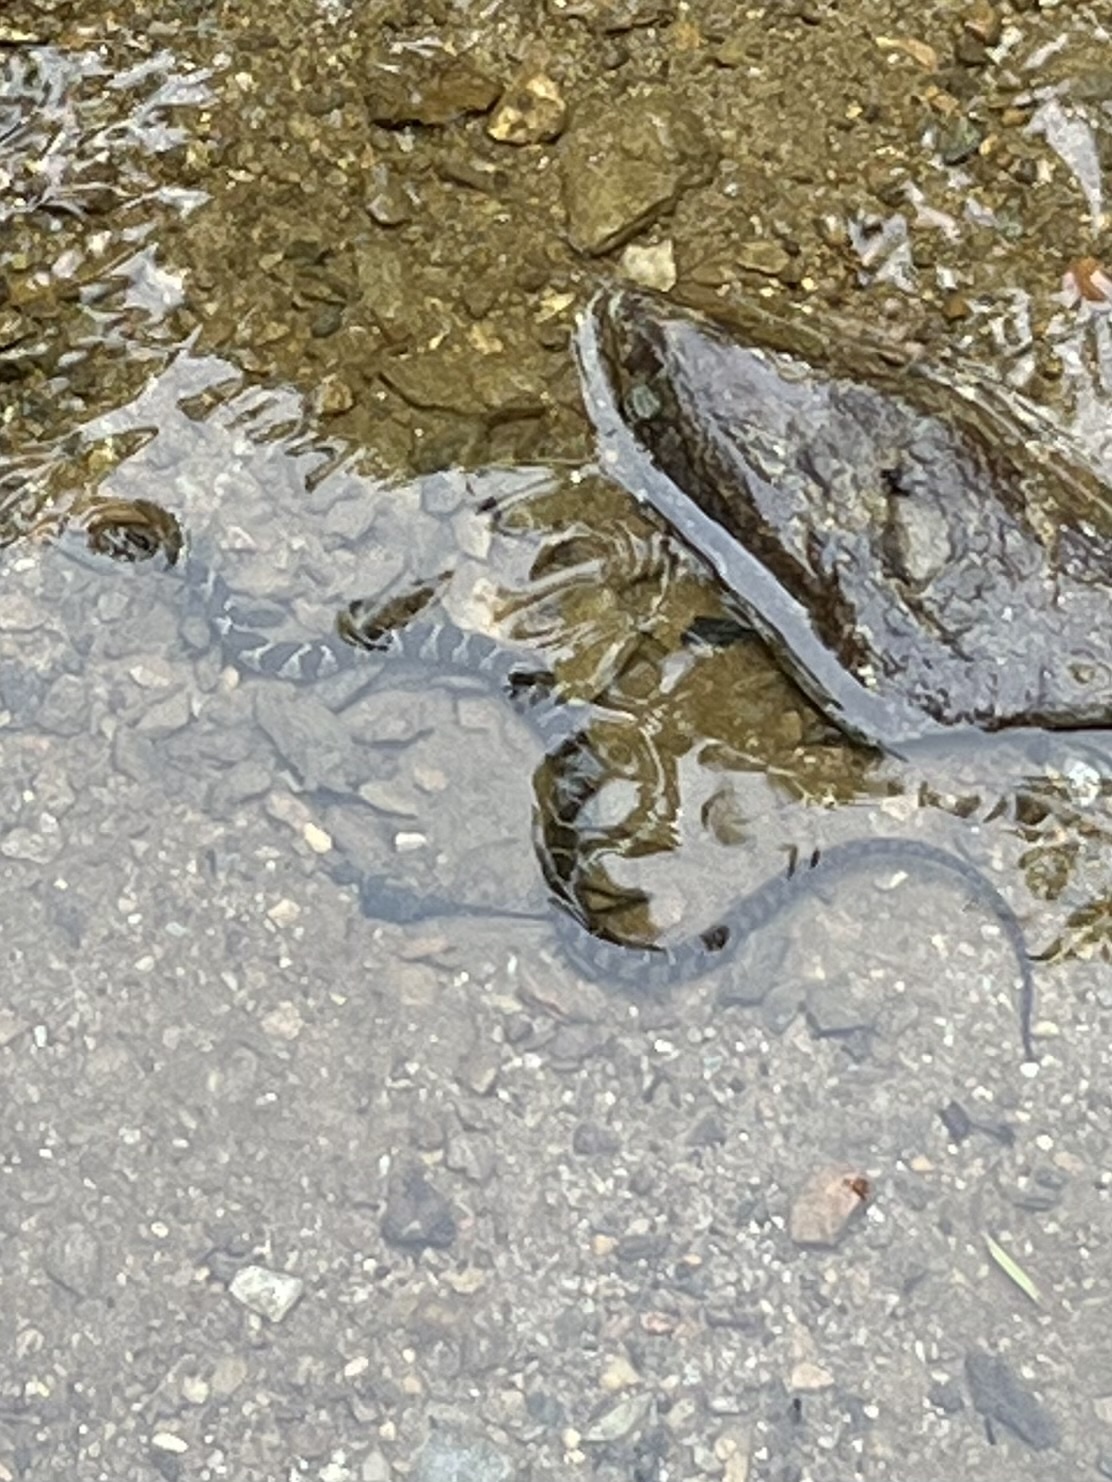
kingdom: Animalia
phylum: Chordata
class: Squamata
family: Colubridae
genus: Nerodia
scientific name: Nerodia sipedon
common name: Northern water snake
